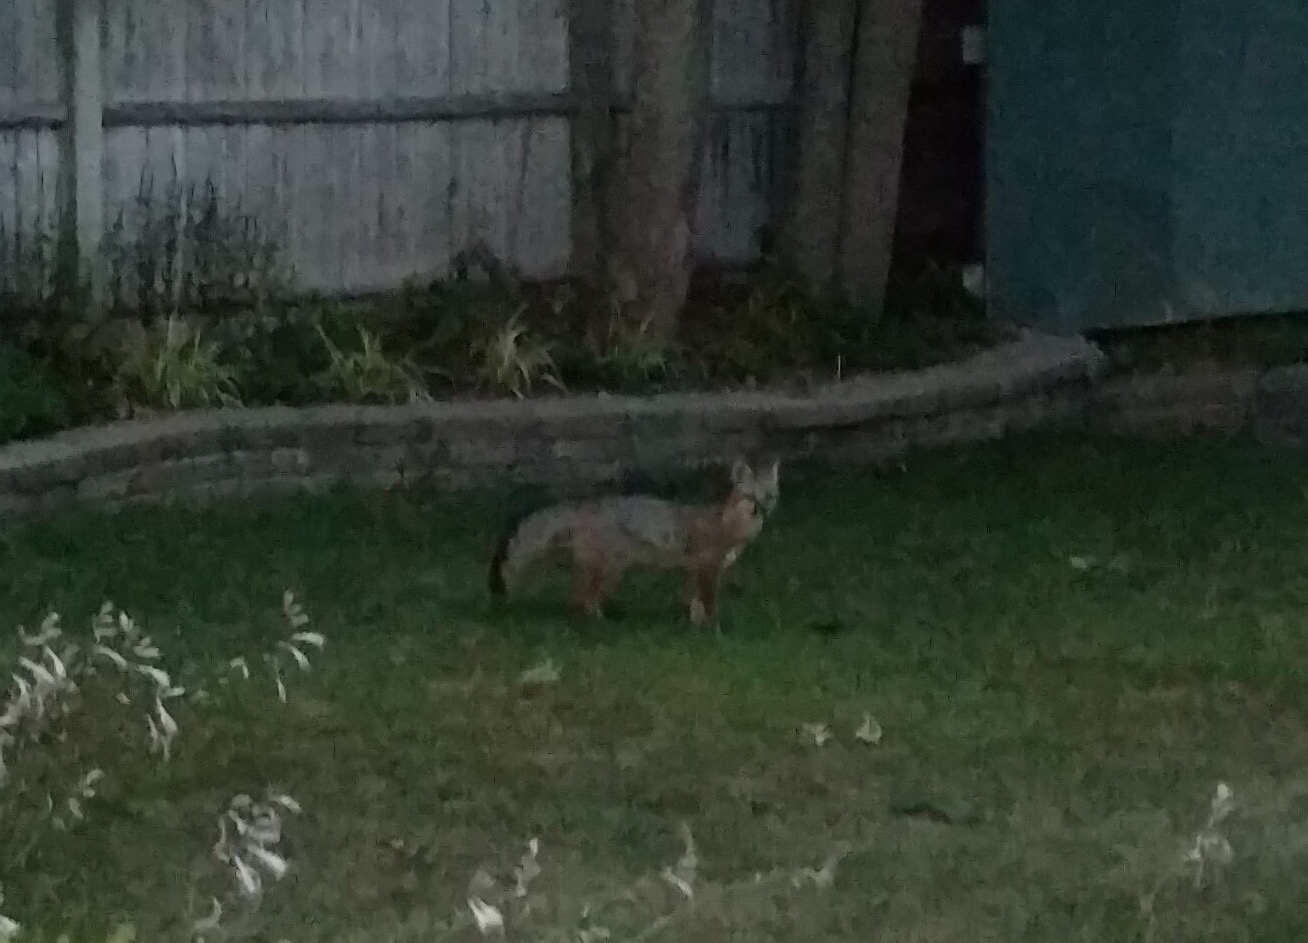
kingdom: Animalia
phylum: Chordata
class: Mammalia
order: Carnivora
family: Canidae
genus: Urocyon
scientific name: Urocyon cinereoargenteus
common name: Gray fox
